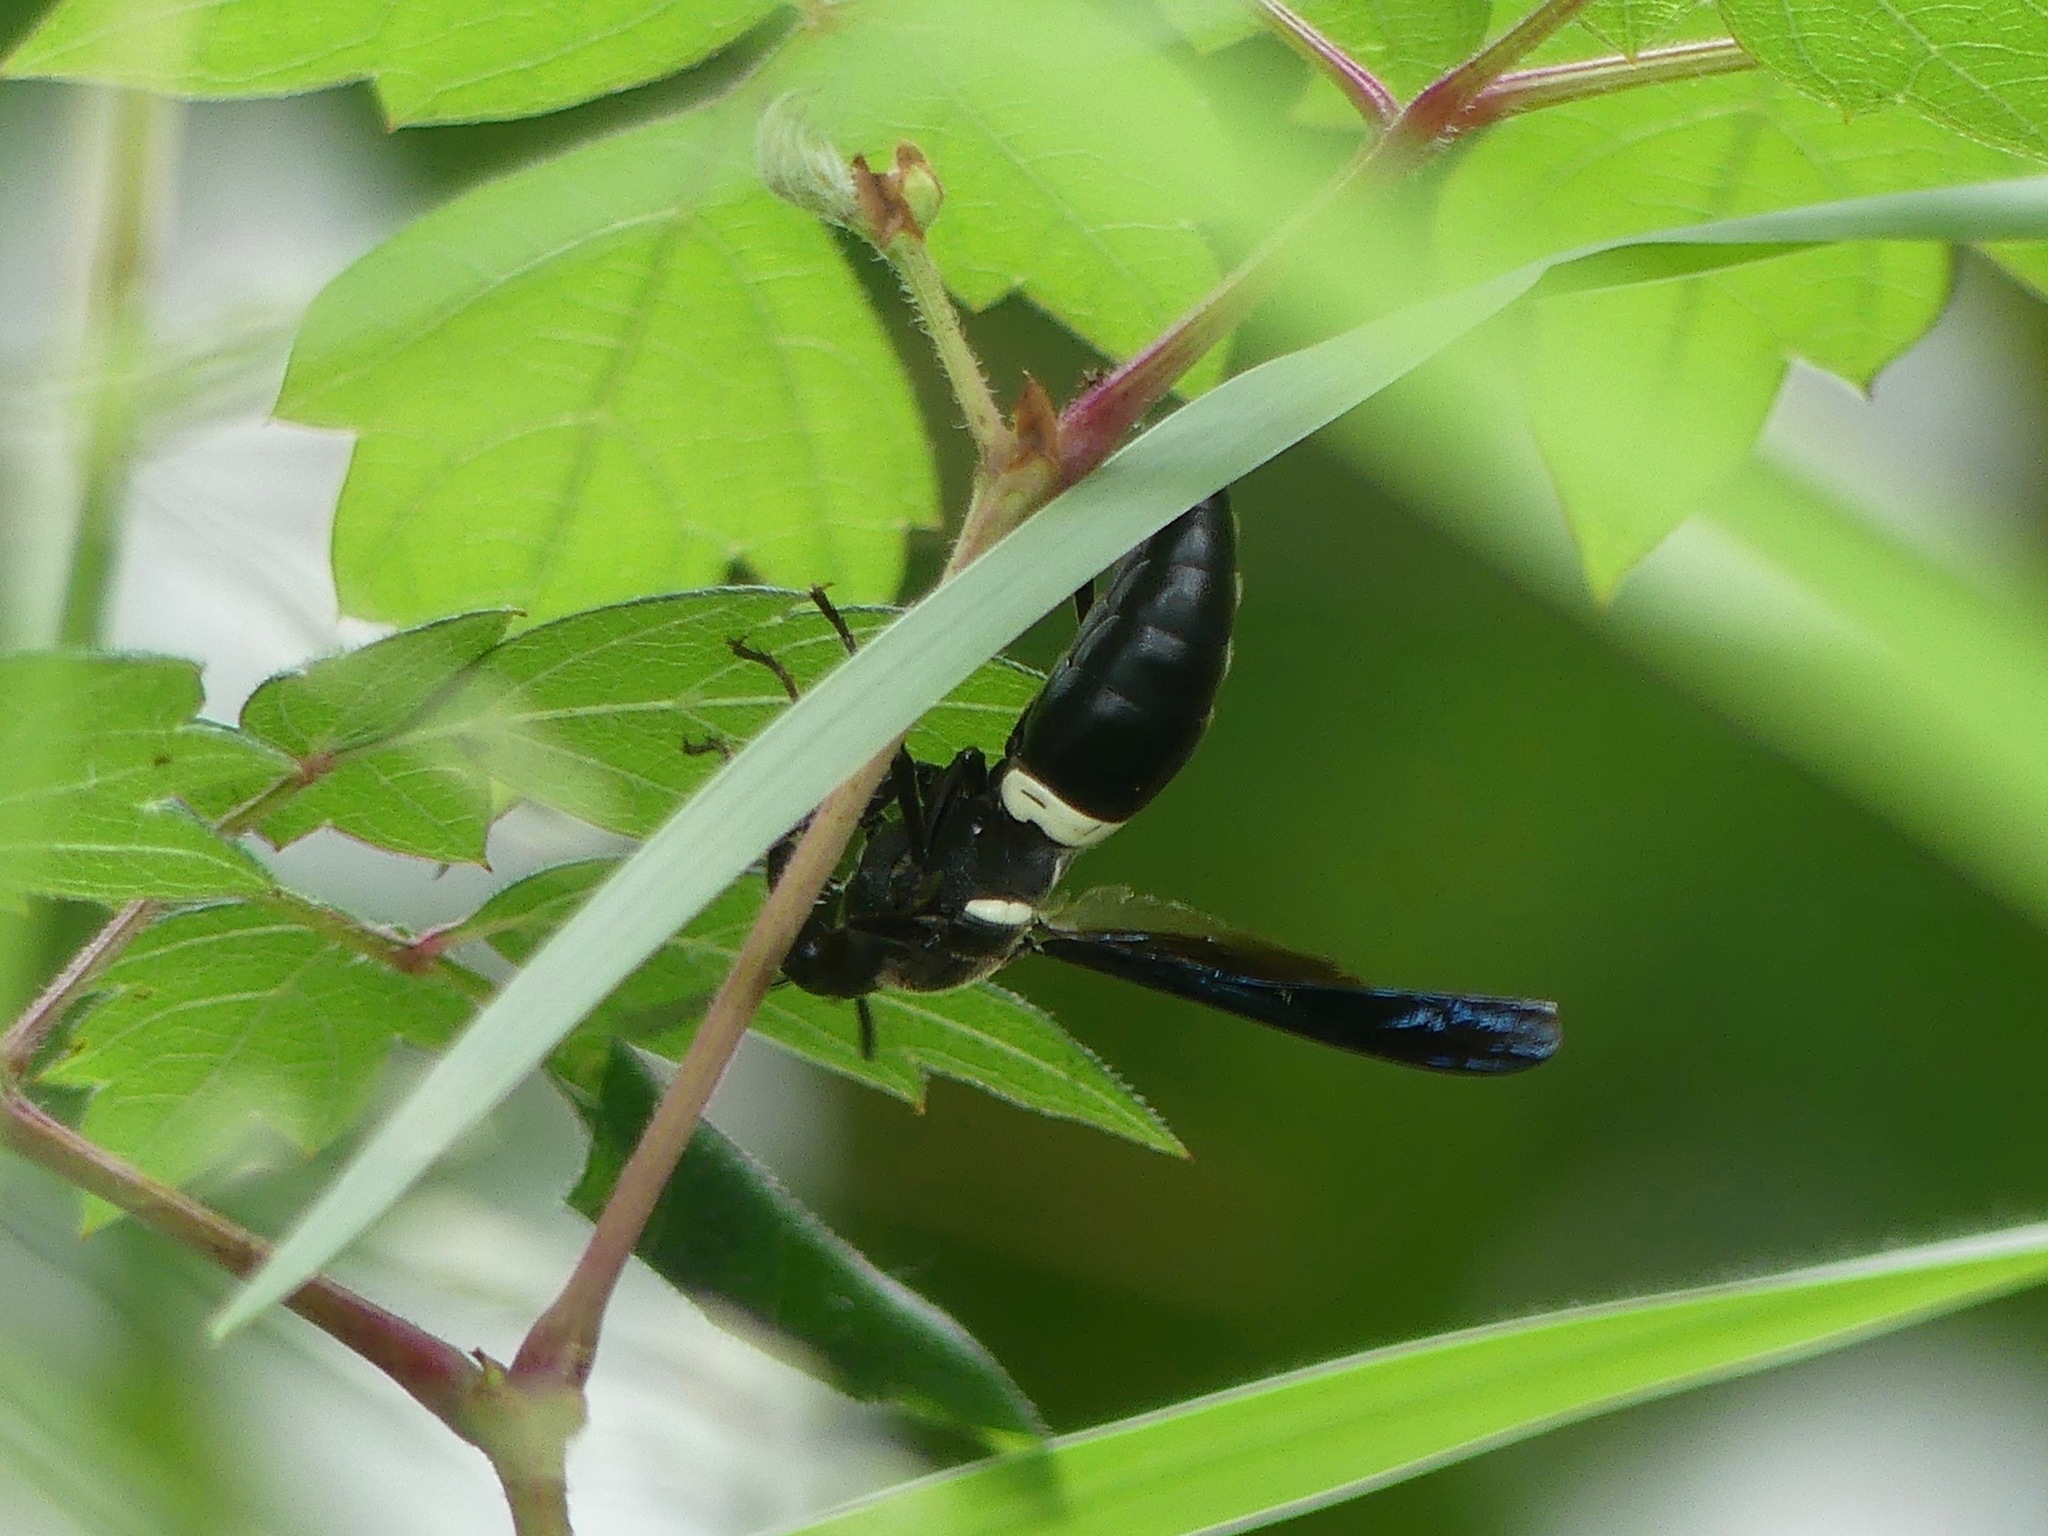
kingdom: Animalia
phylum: Arthropoda
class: Insecta
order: Hymenoptera
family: Eumenidae
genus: Monobia
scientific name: Monobia quadridens
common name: Four-toothed mason wasp
